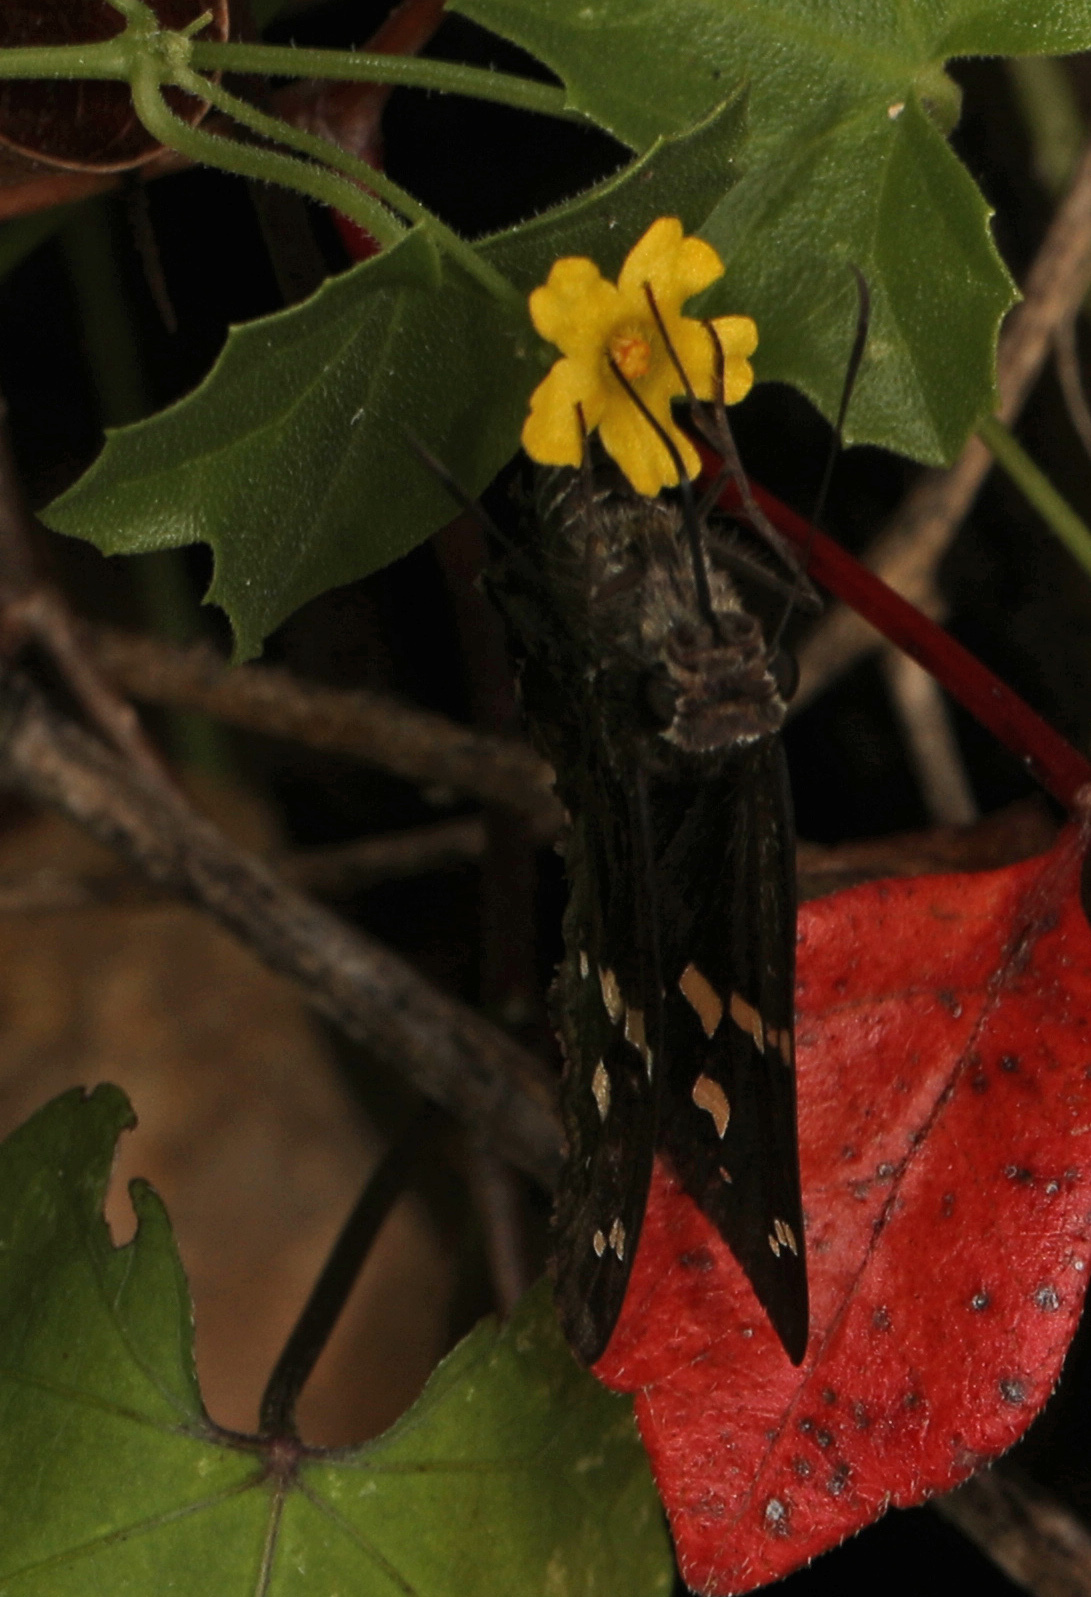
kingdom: Animalia
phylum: Arthropoda
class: Insecta
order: Lepidoptera
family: Hesperiidae
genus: Thorybes
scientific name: Thorybes
